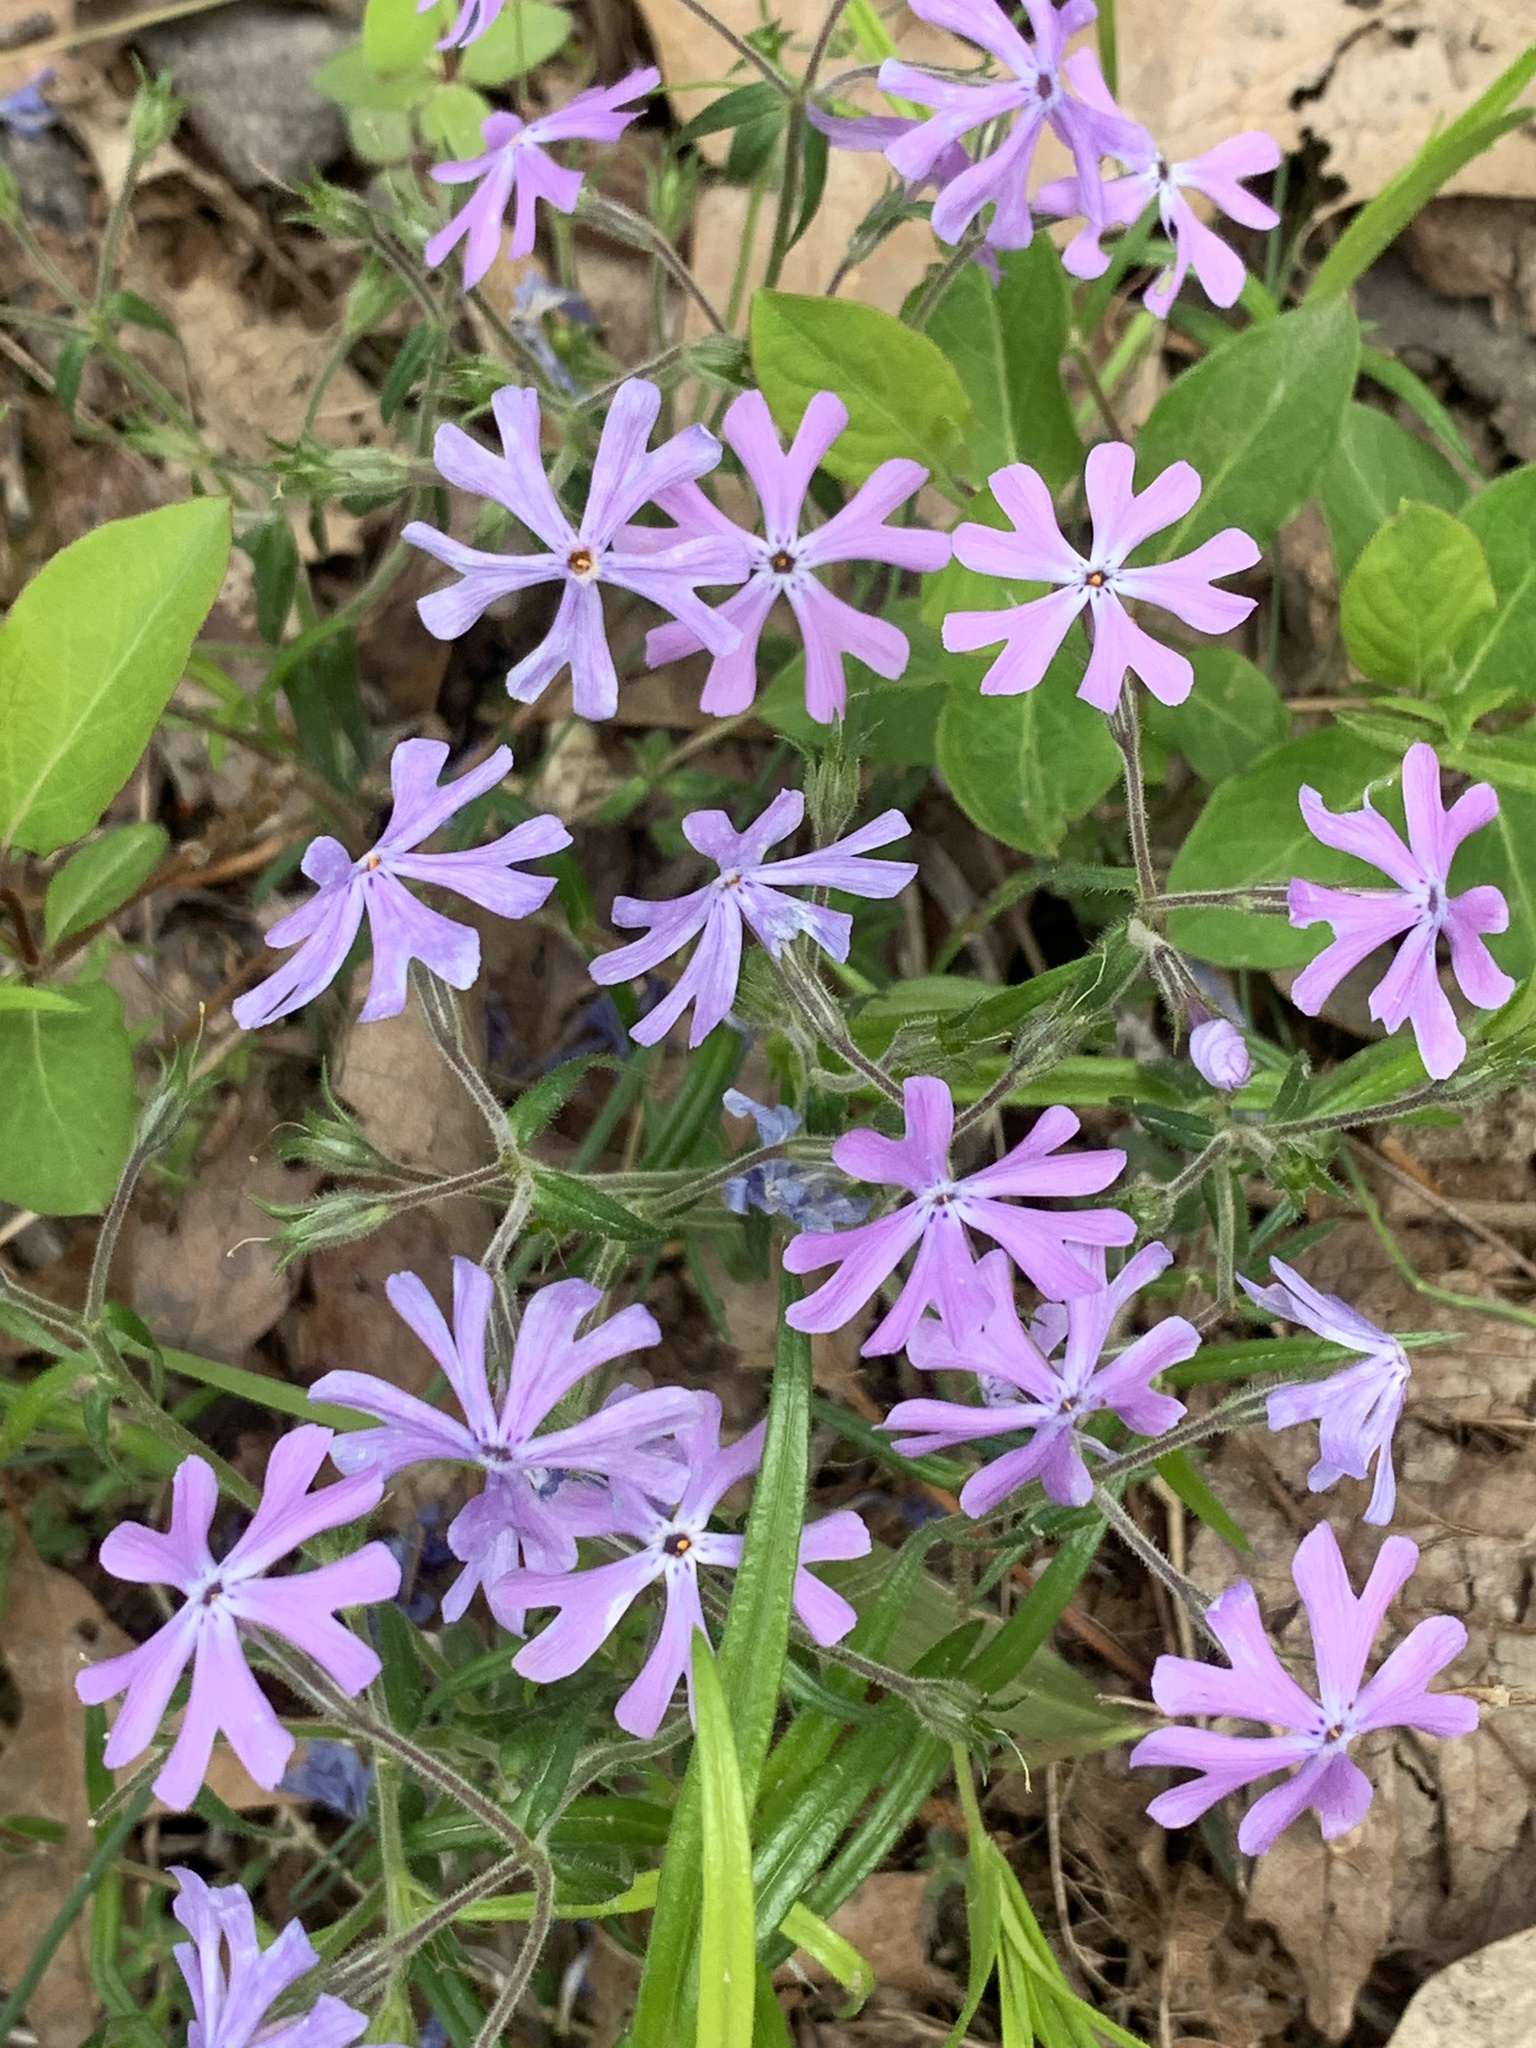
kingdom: Plantae
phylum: Tracheophyta
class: Magnoliopsida
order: Ericales
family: Polemoniaceae
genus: Phlox
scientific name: Phlox bifida
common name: Sand phlox
